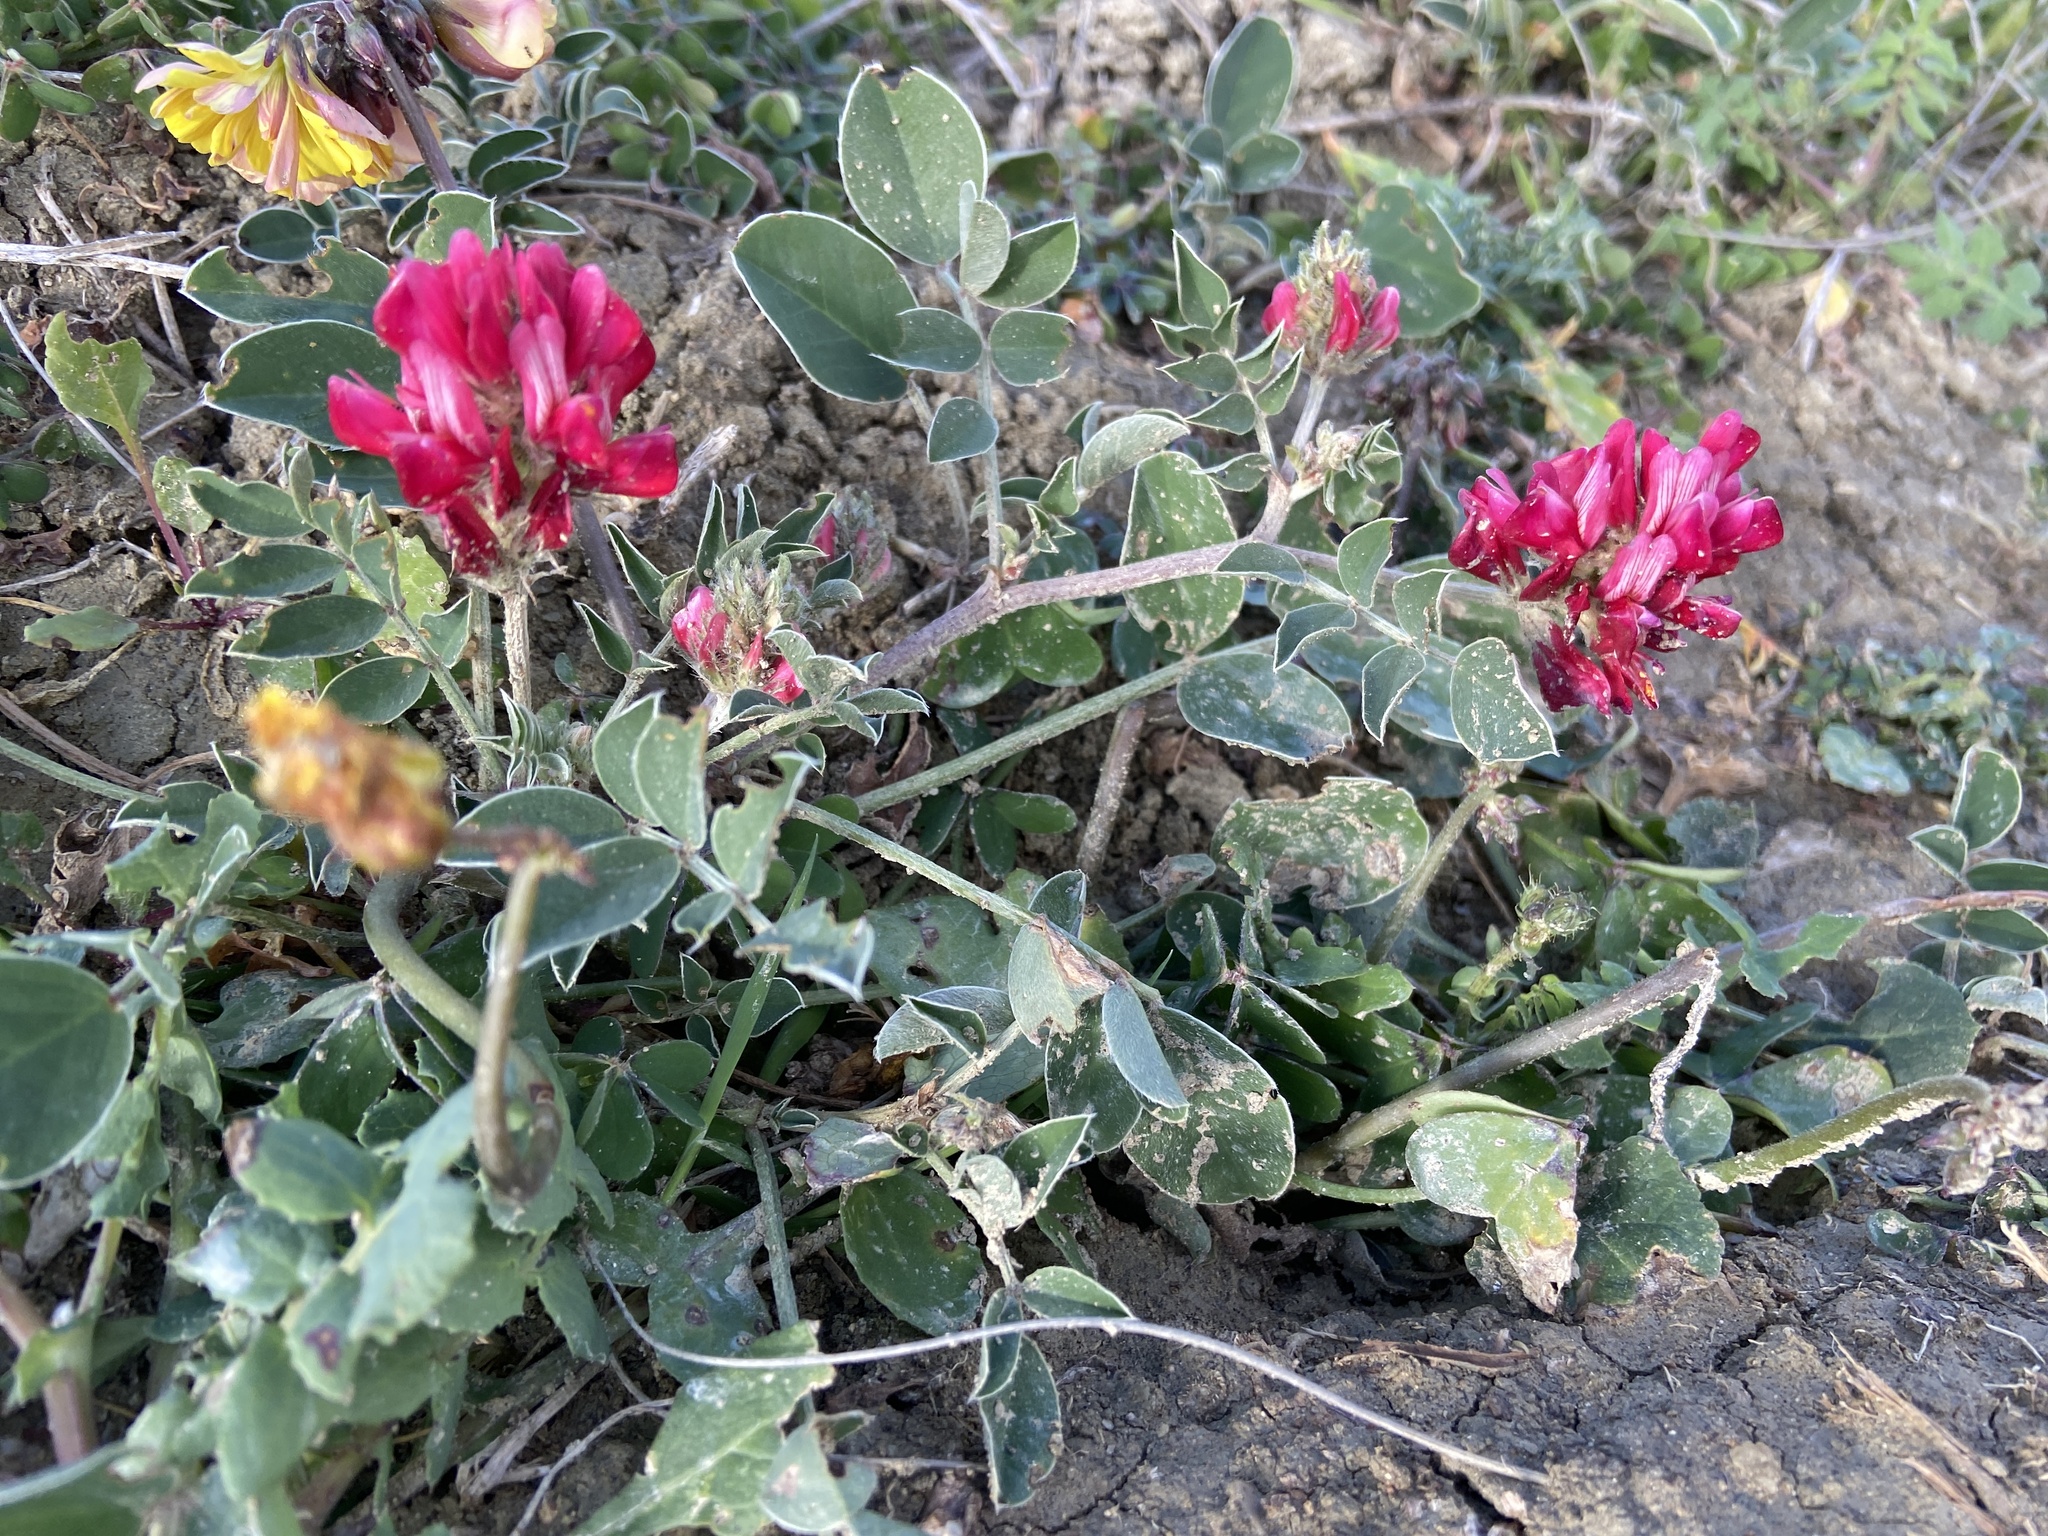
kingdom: Plantae
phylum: Tracheophyta
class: Magnoliopsida
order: Fabales
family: Fabaceae
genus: Sulla
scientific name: Sulla coronaria
